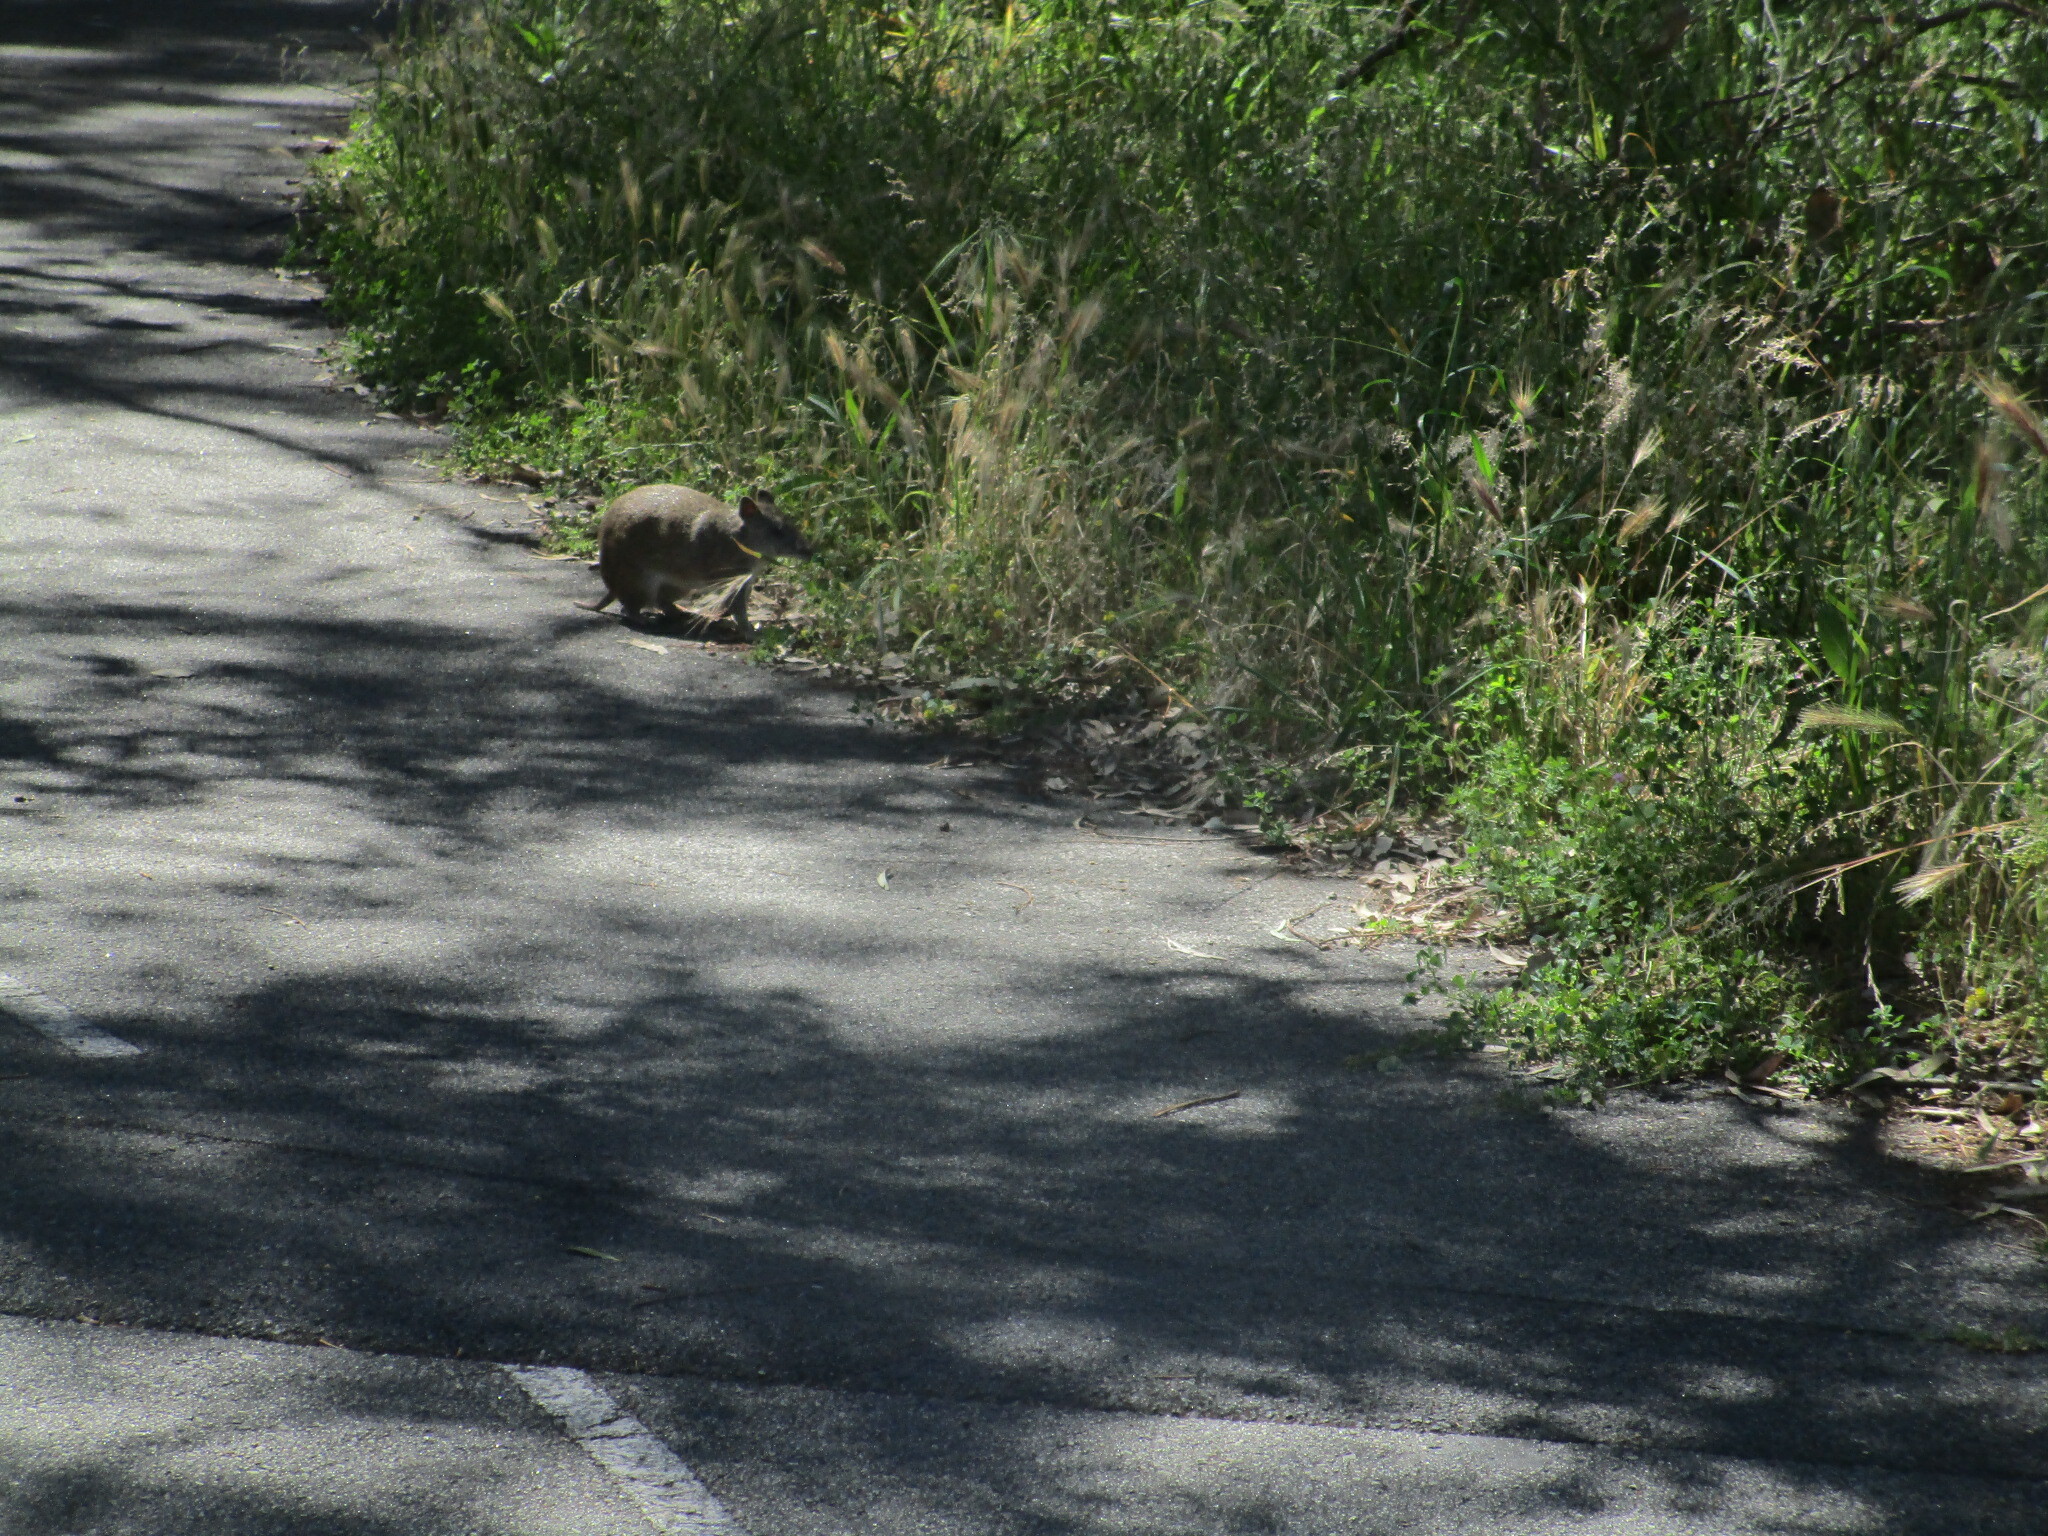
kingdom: Animalia
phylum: Chordata
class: Mammalia
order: Peramelemorphia
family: Peramelidae
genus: Isoodon
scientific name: Isoodon fusciventer
